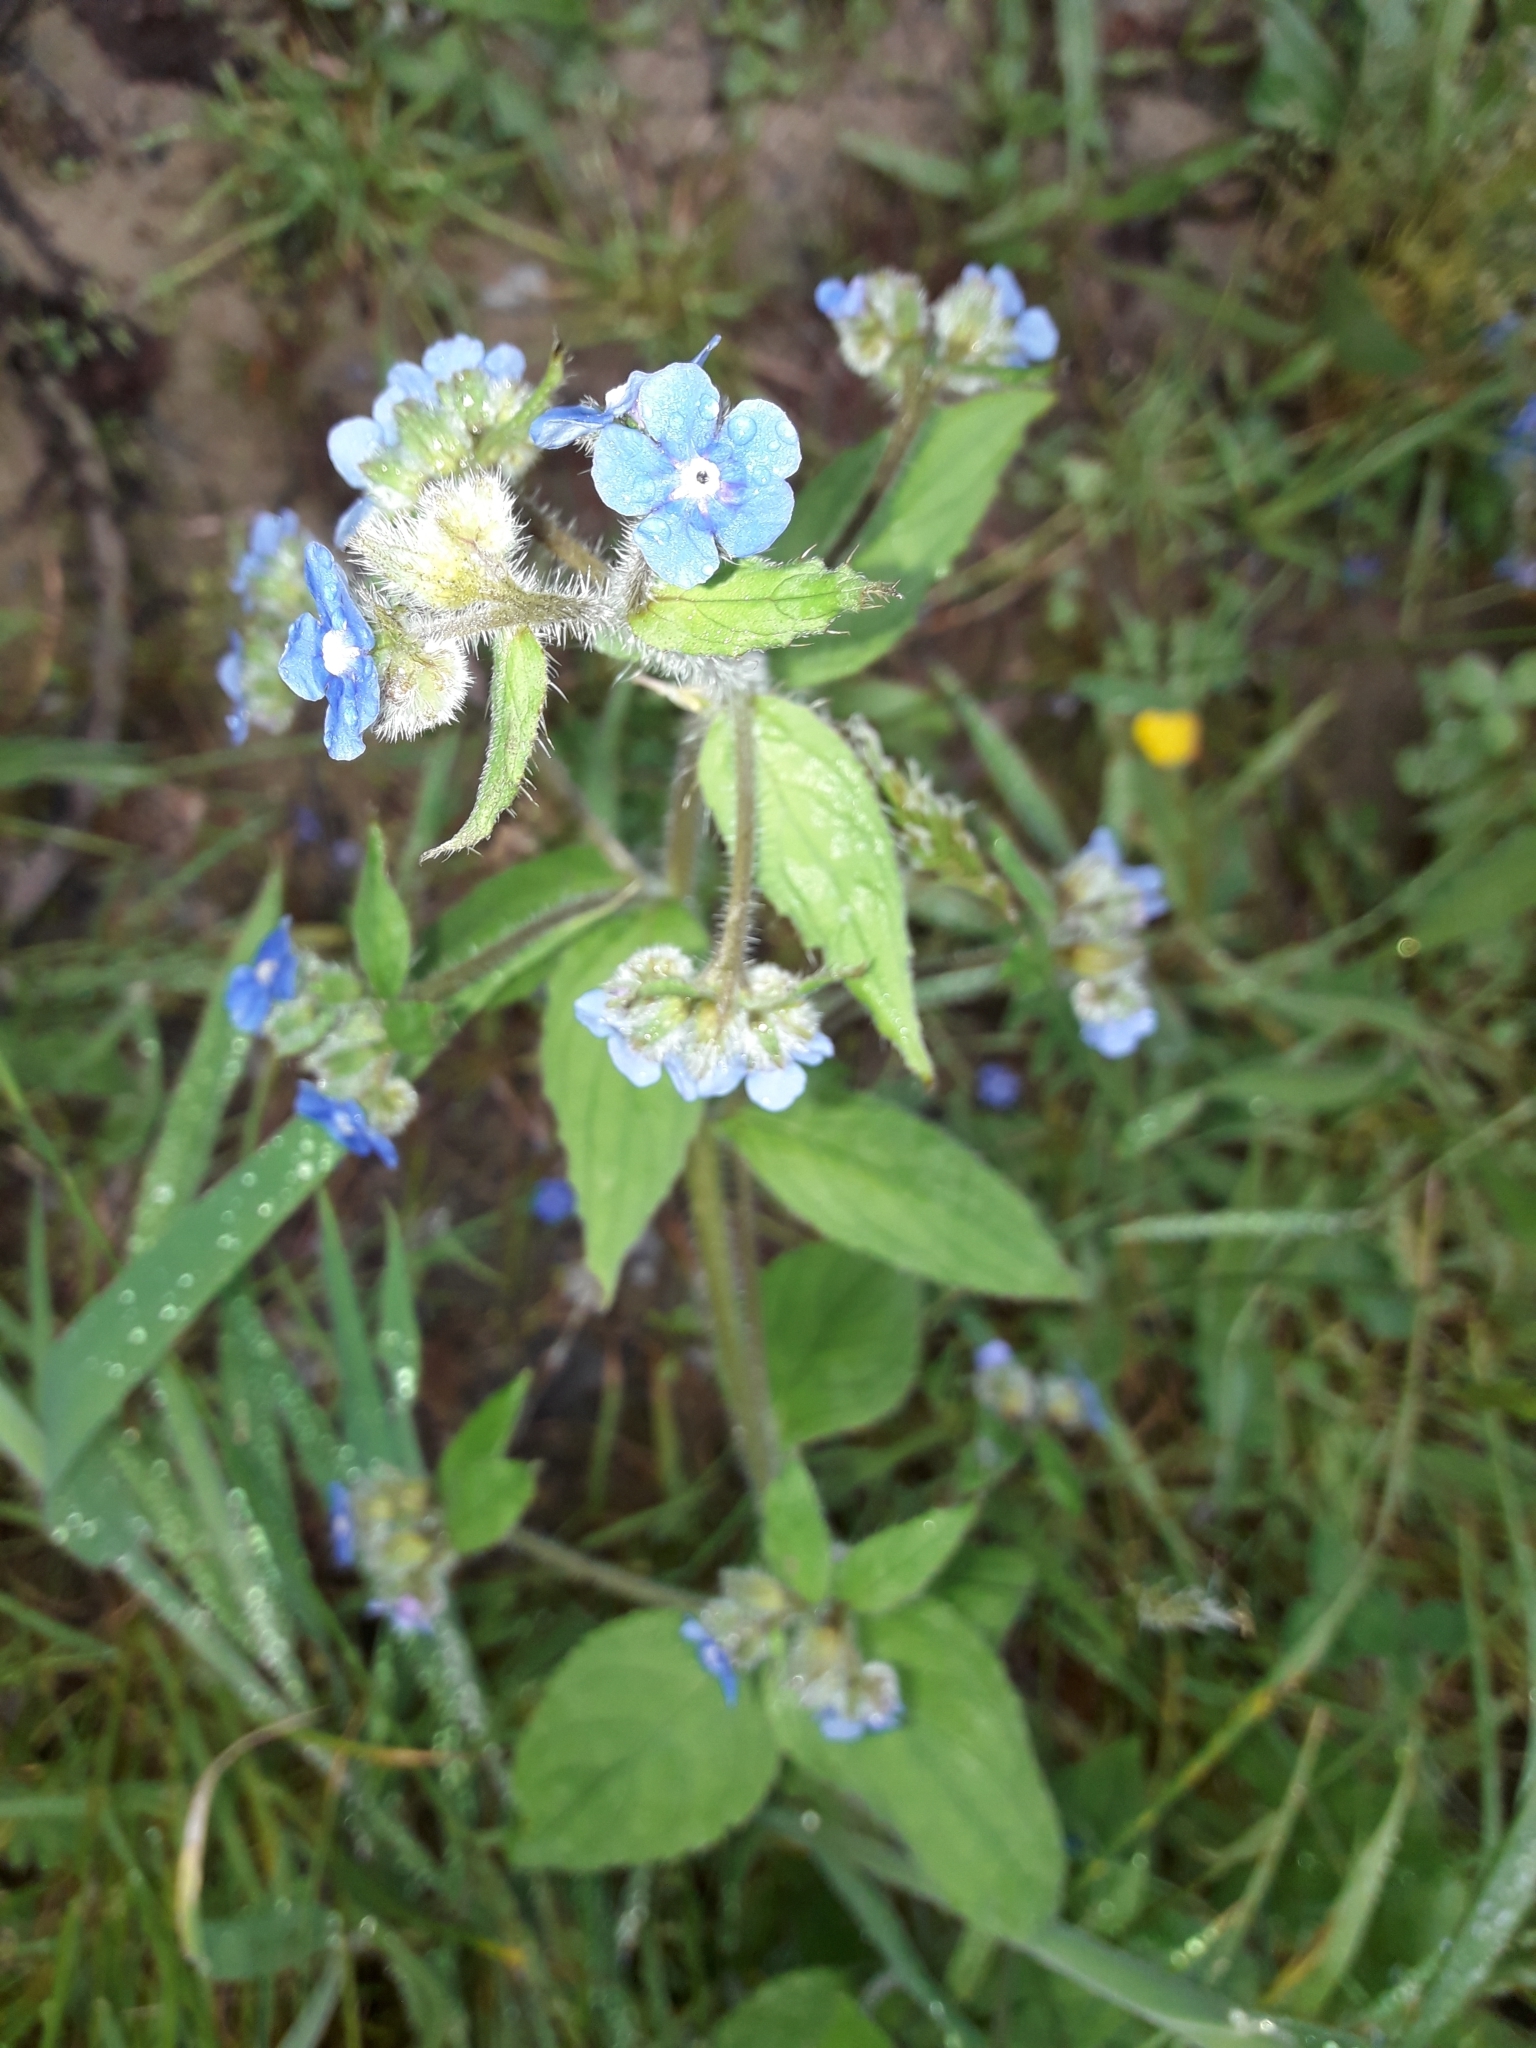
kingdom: Plantae
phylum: Tracheophyta
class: Magnoliopsida
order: Boraginales
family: Boraginaceae
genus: Pentaglottis
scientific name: Pentaglottis sempervirens
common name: Green alkanet
